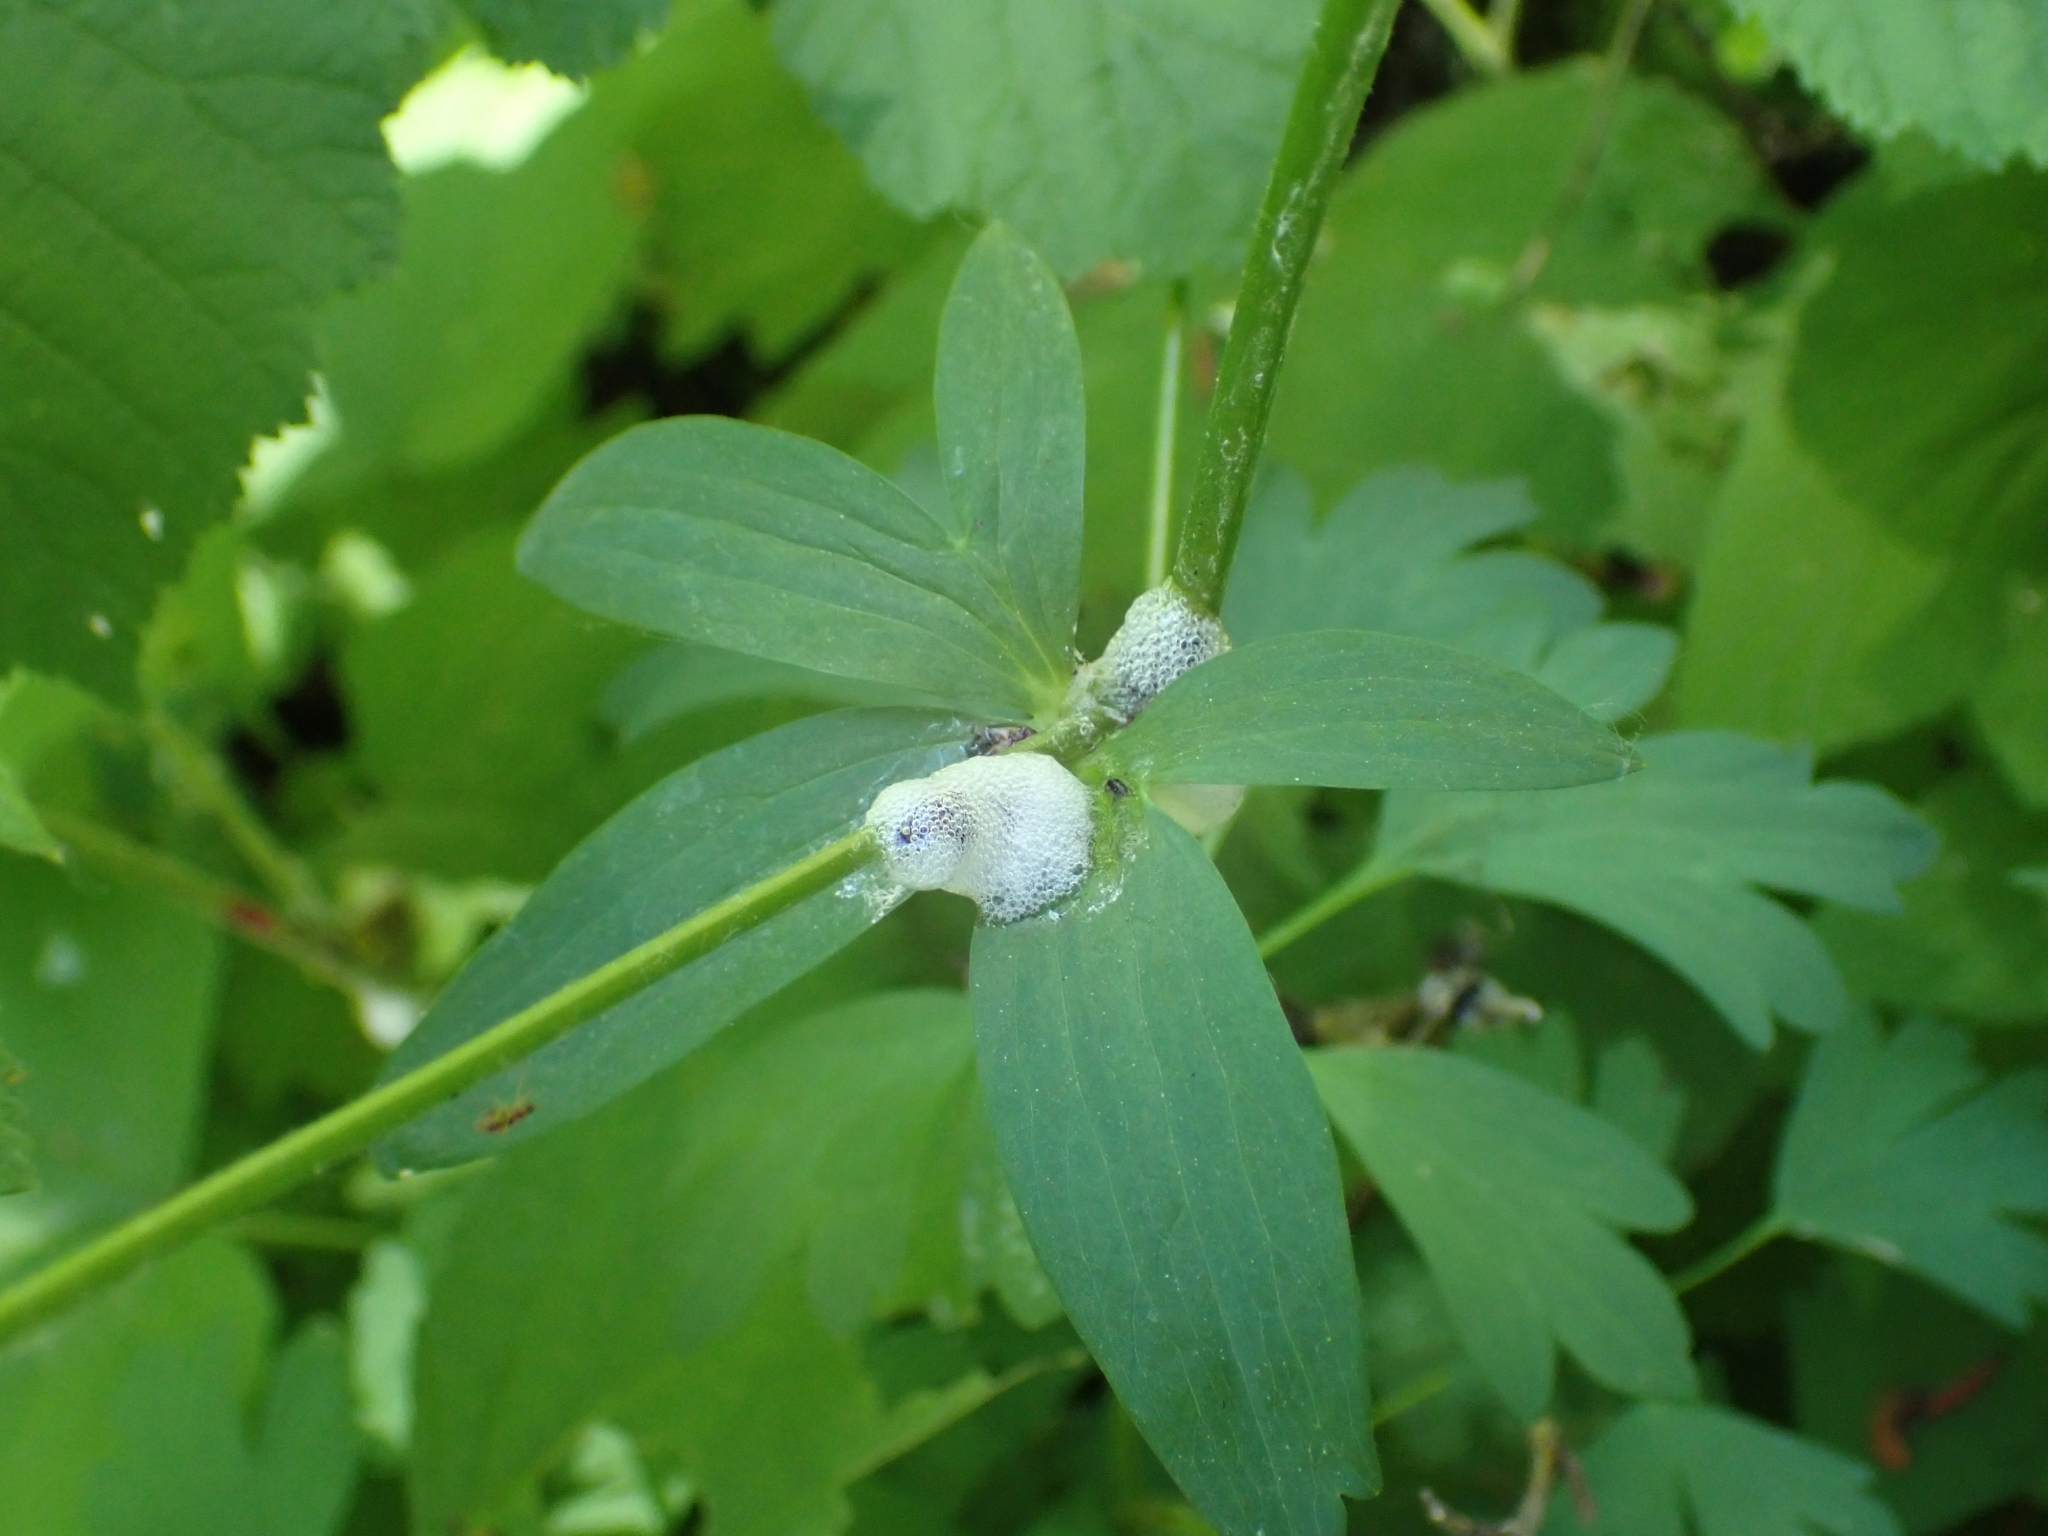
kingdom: Plantae
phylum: Tracheophyta
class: Magnoliopsida
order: Ranunculales
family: Ranunculaceae
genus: Aquilegia
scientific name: Aquilegia formosa
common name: Sitka columbine
